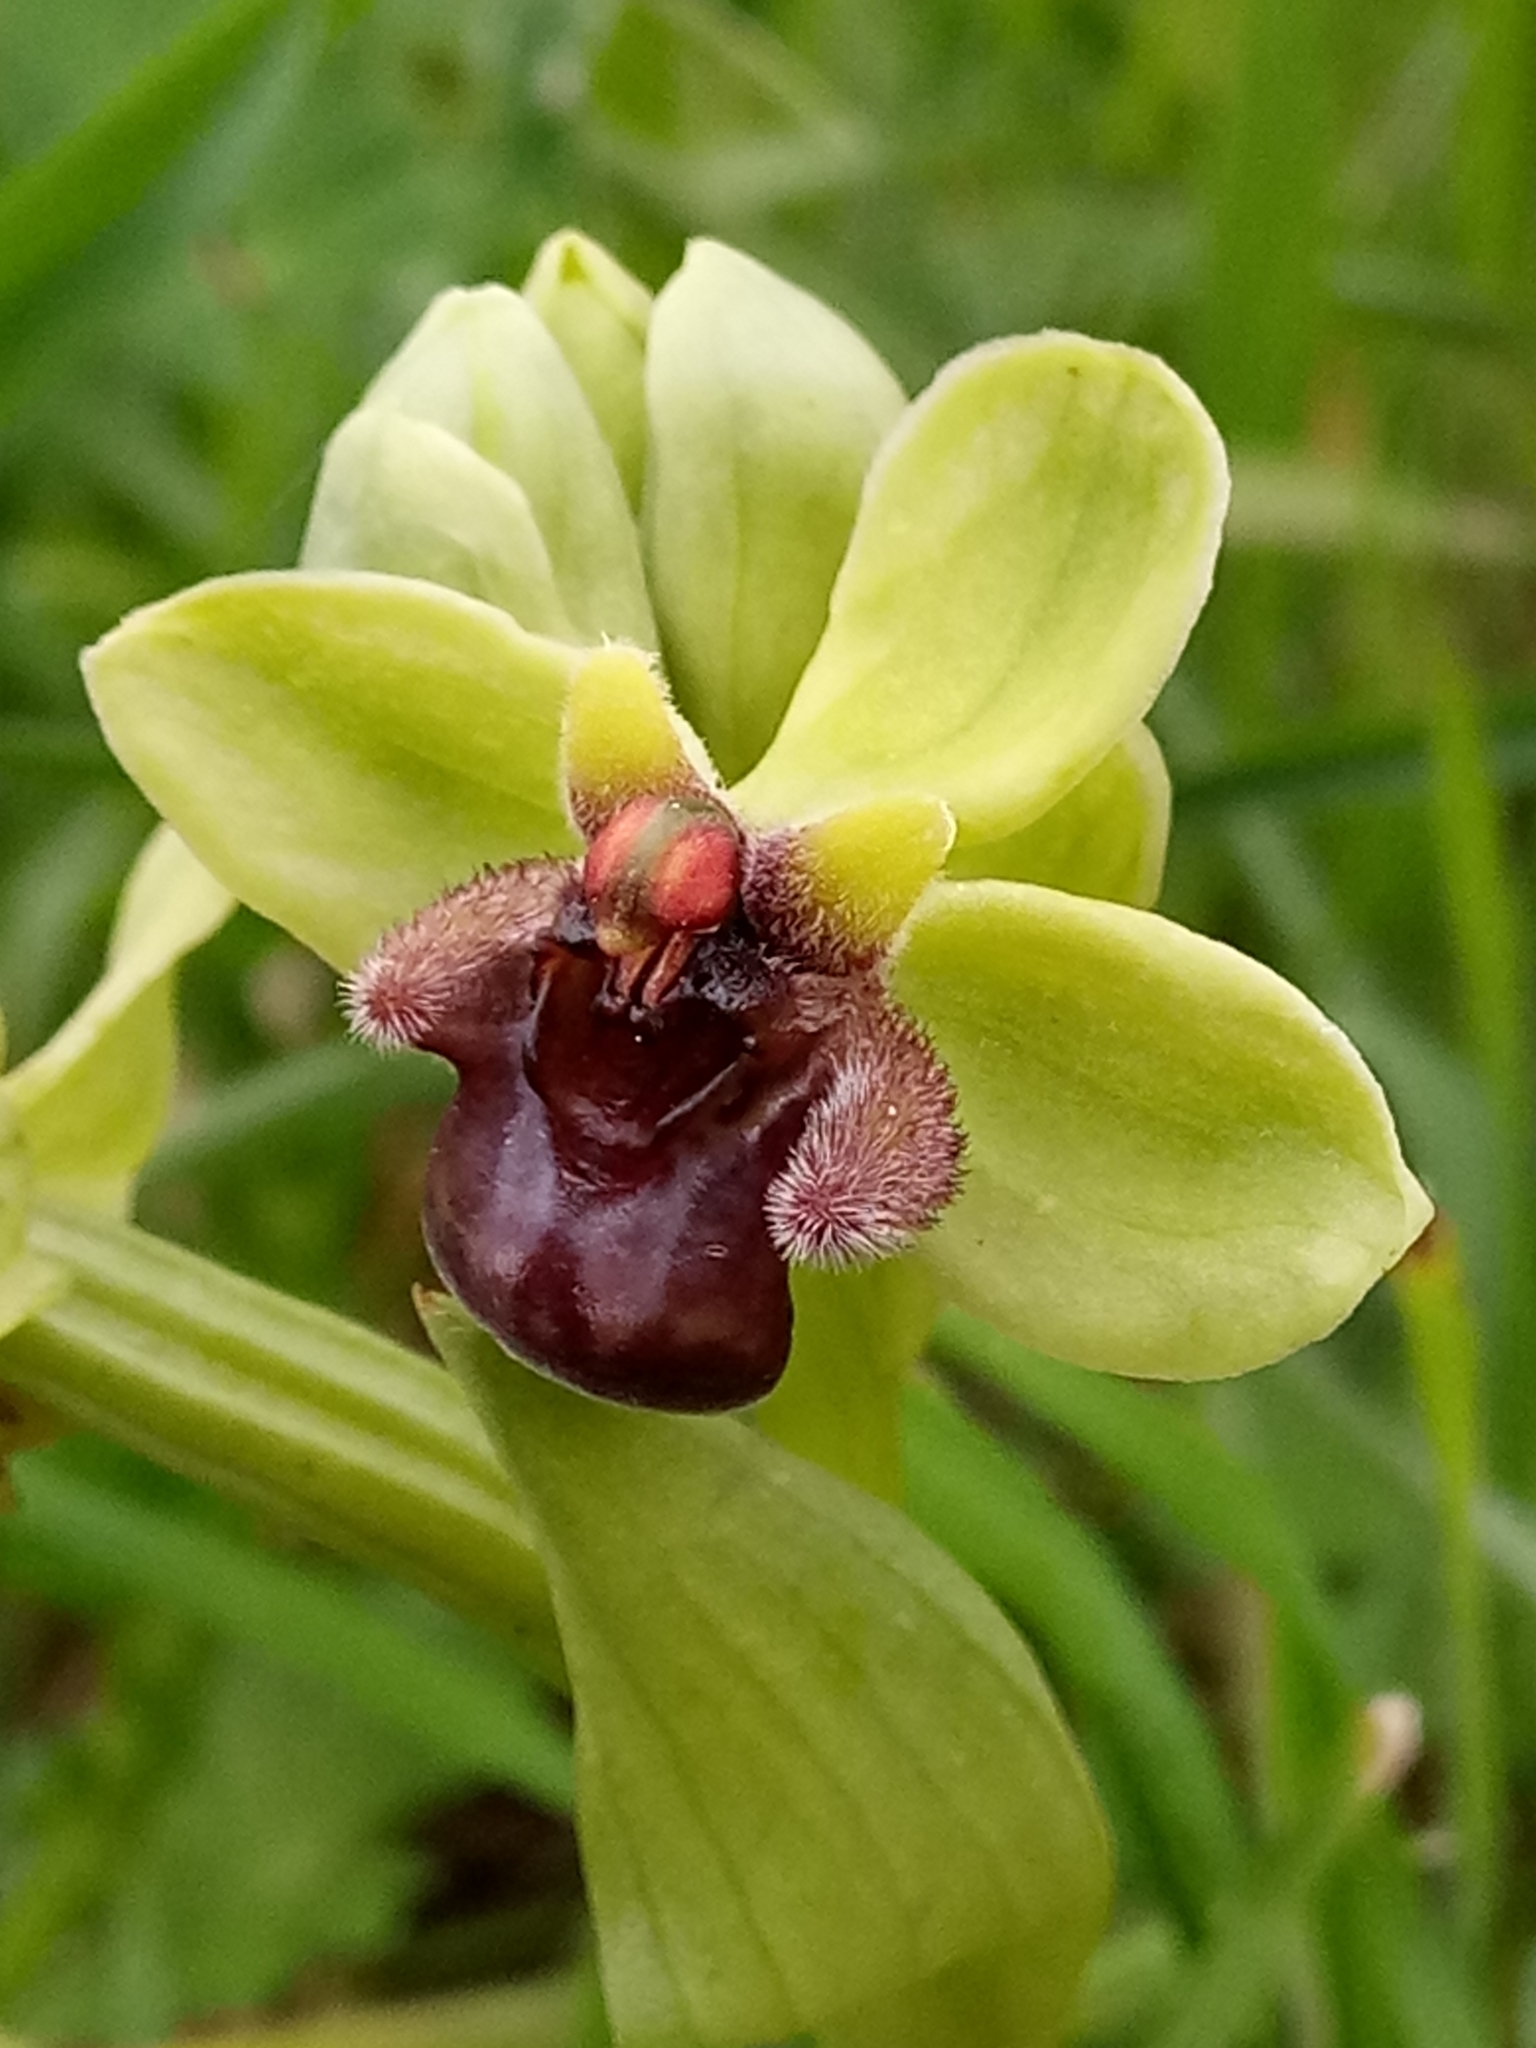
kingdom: Plantae
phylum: Tracheophyta
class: Liliopsida
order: Asparagales
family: Orchidaceae
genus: Ophrys
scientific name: Ophrys bombyliflora
